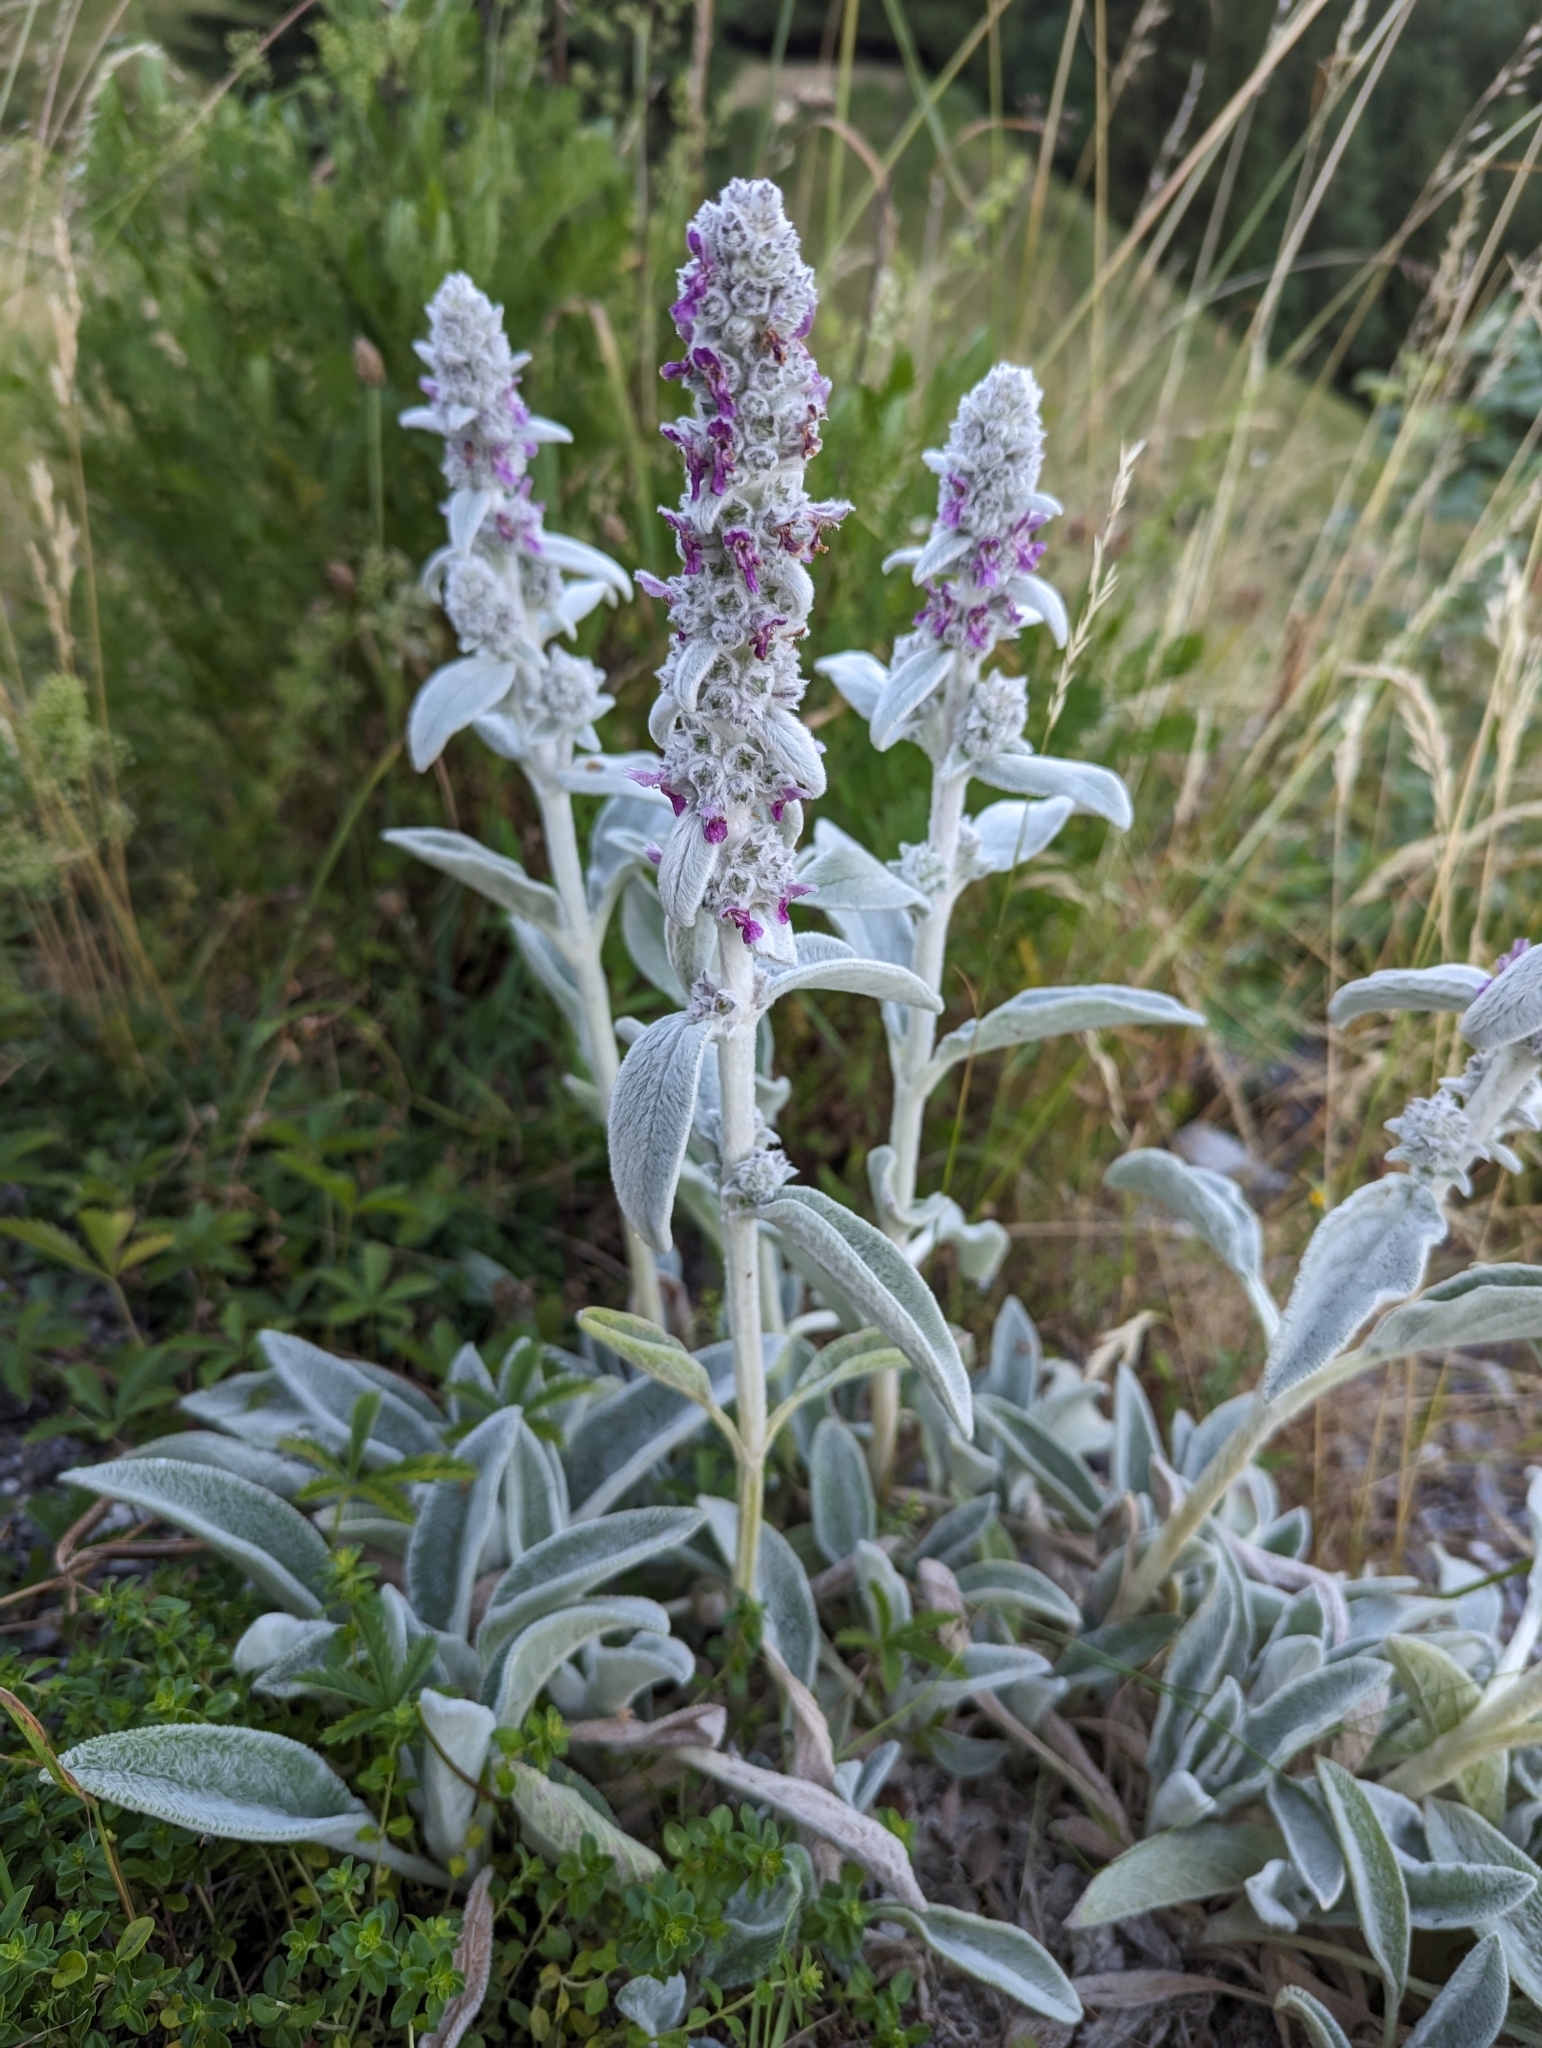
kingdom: Plantae
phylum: Tracheophyta
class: Magnoliopsida
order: Lamiales
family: Lamiaceae
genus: Stachys
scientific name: Stachys byzantina
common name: Lamb's-ear
